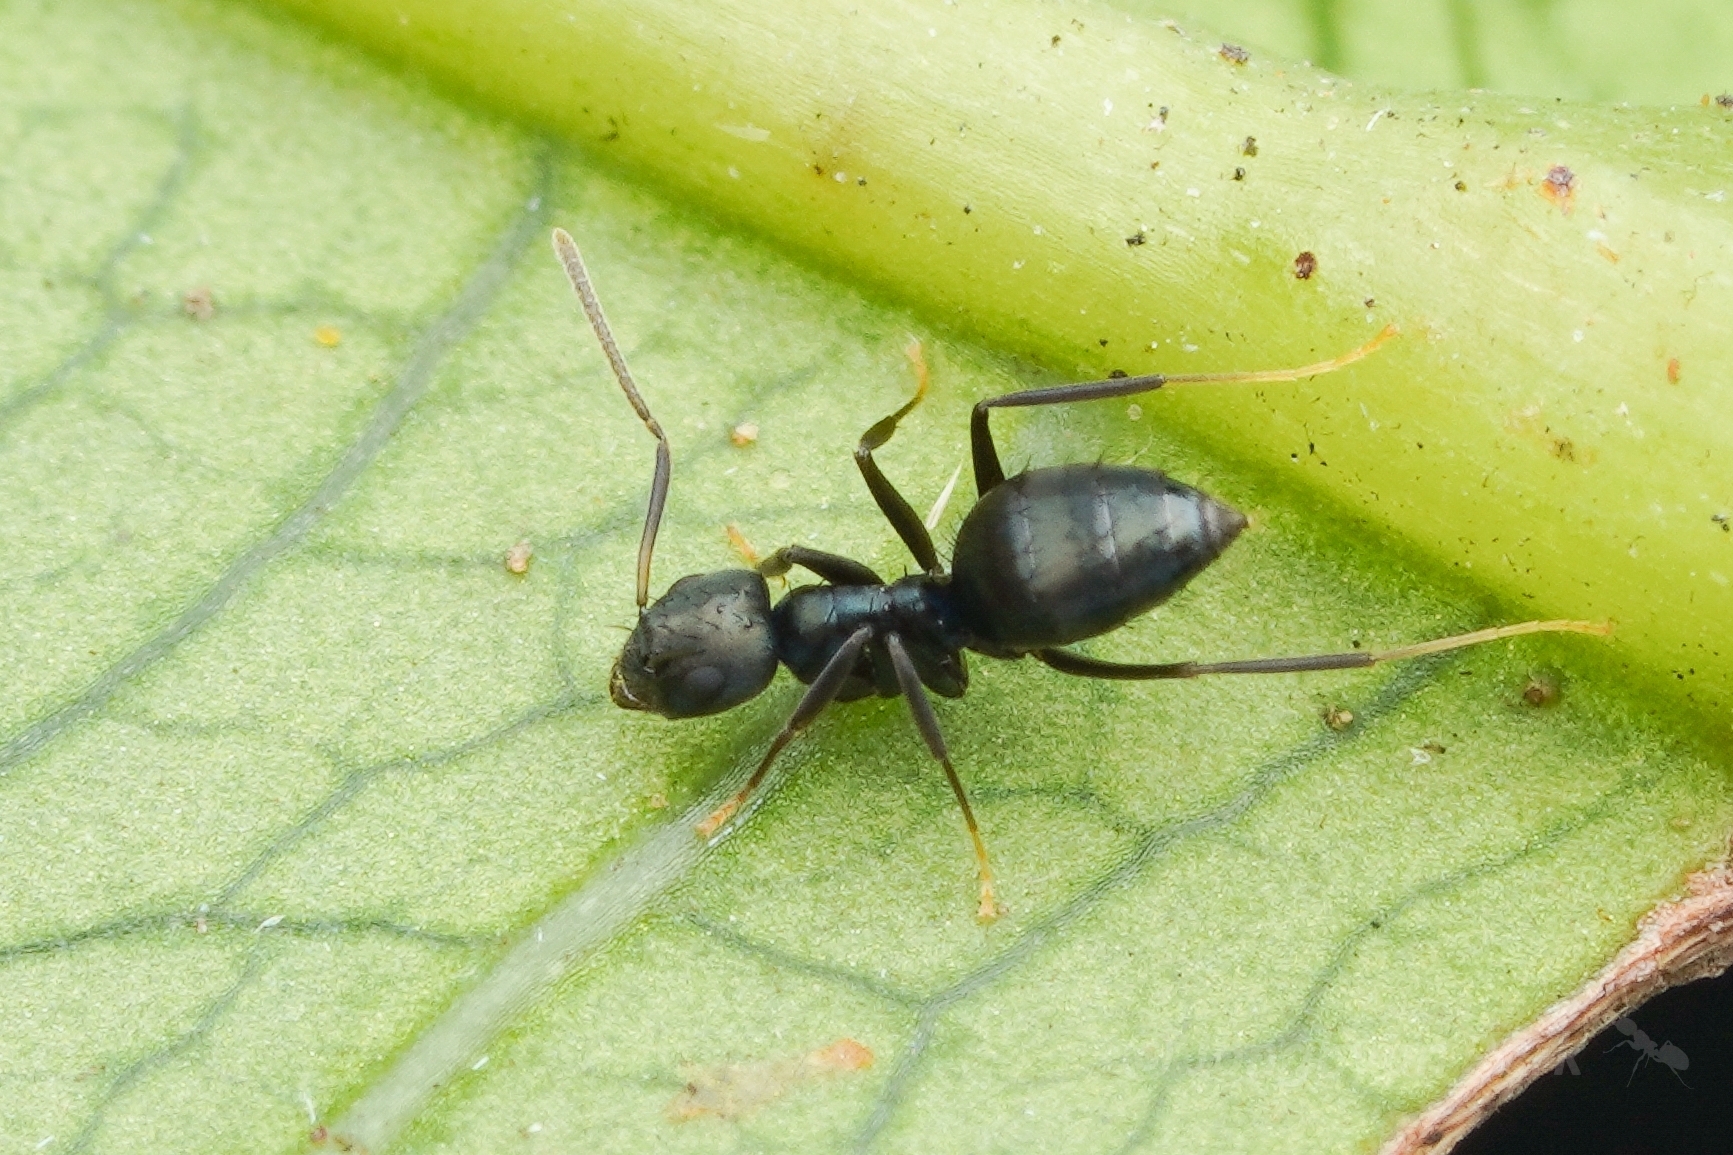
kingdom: Animalia
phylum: Arthropoda
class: Insecta
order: Hymenoptera
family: Formicidae
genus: Paraparatrechina
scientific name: Paraparatrechina
